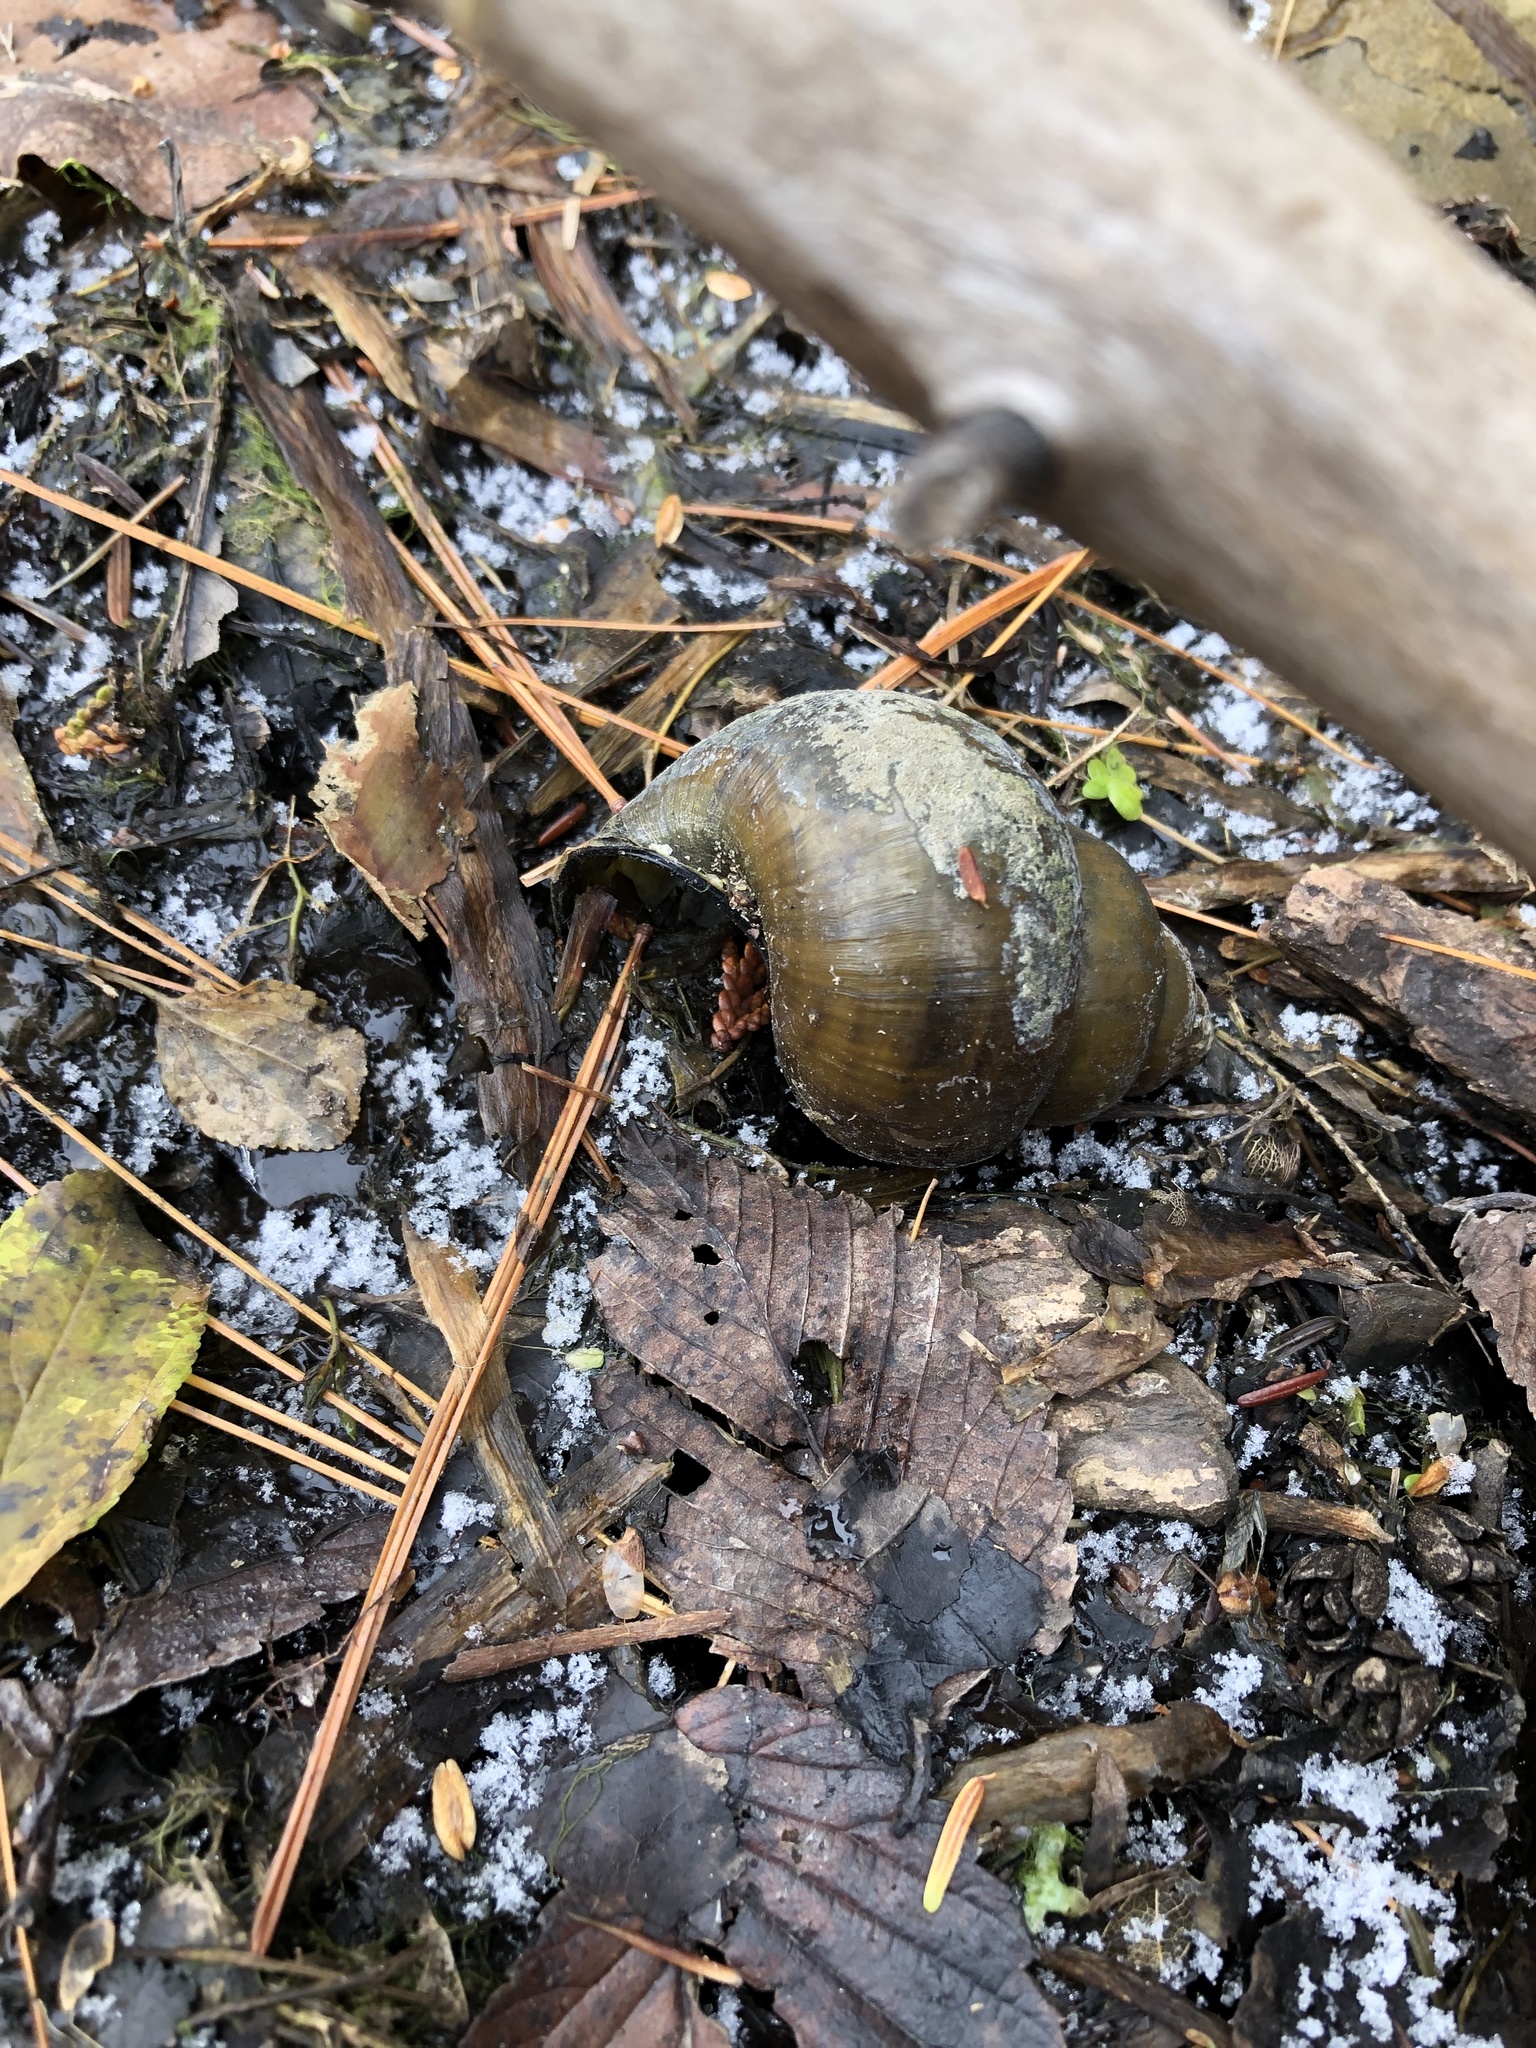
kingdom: Animalia
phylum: Mollusca
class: Gastropoda
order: Architaenioglossa
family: Viviparidae
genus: Cipangopaludina
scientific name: Cipangopaludina chinensis
